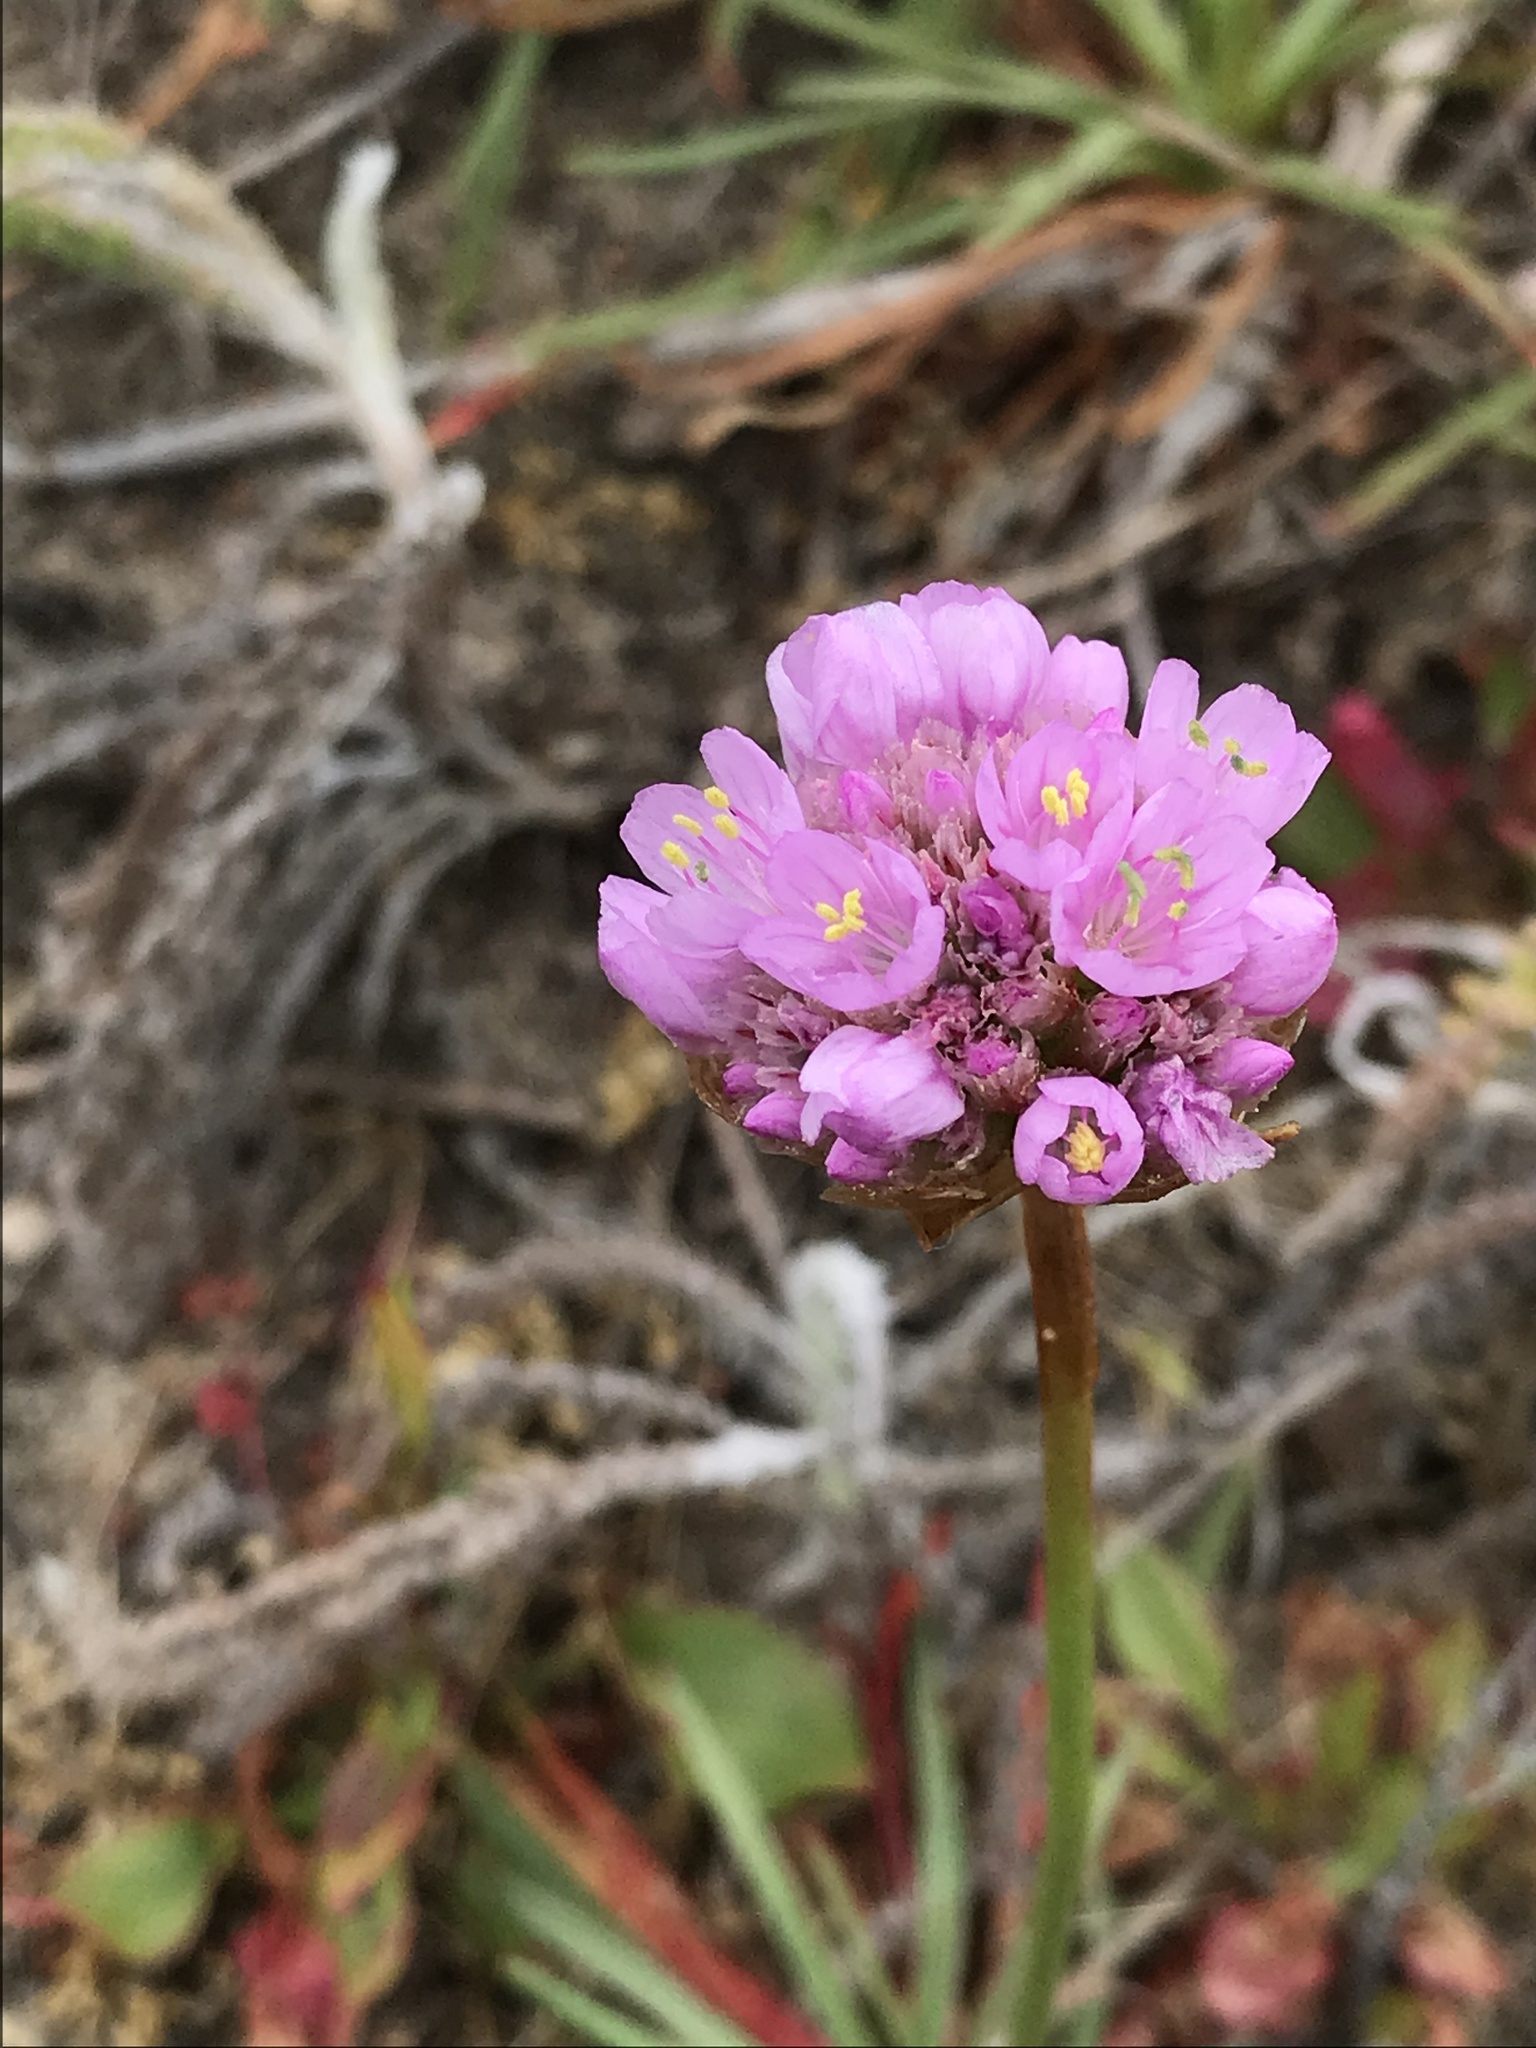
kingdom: Plantae
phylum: Tracheophyta
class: Magnoliopsida
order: Caryophyllales
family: Plumbaginaceae
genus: Armeria
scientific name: Armeria maritima
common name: Thrift
